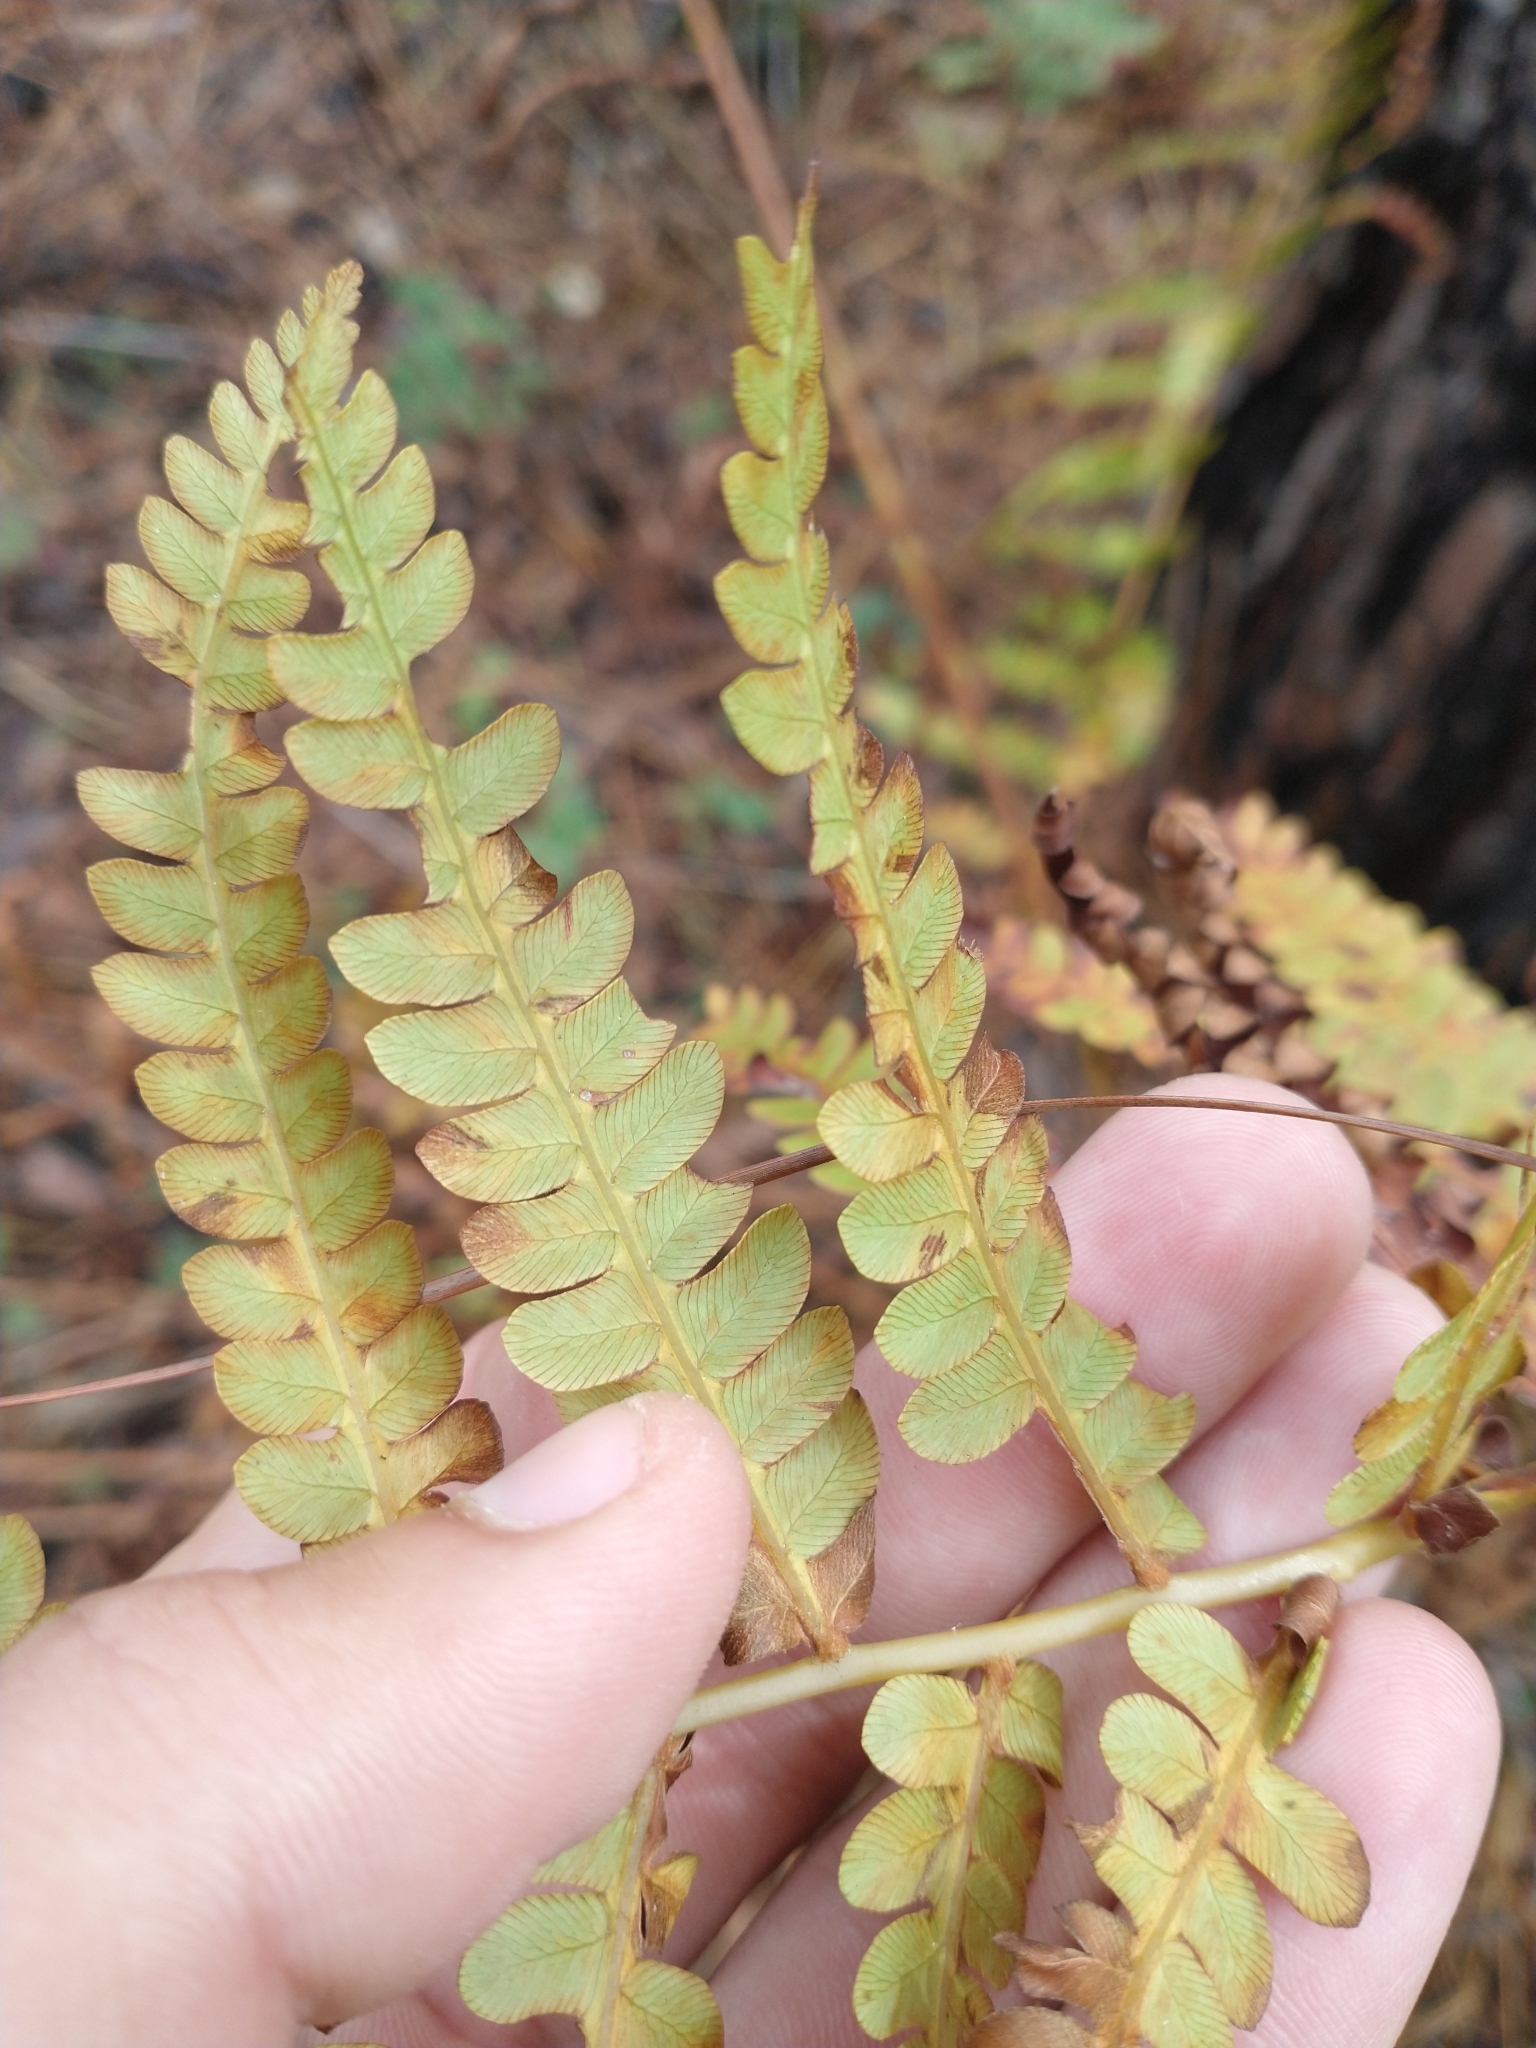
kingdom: Plantae
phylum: Tracheophyta
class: Polypodiopsida
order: Osmundales
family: Osmundaceae
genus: Osmundastrum
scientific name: Osmundastrum cinnamomeum
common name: Cinnamon fern
